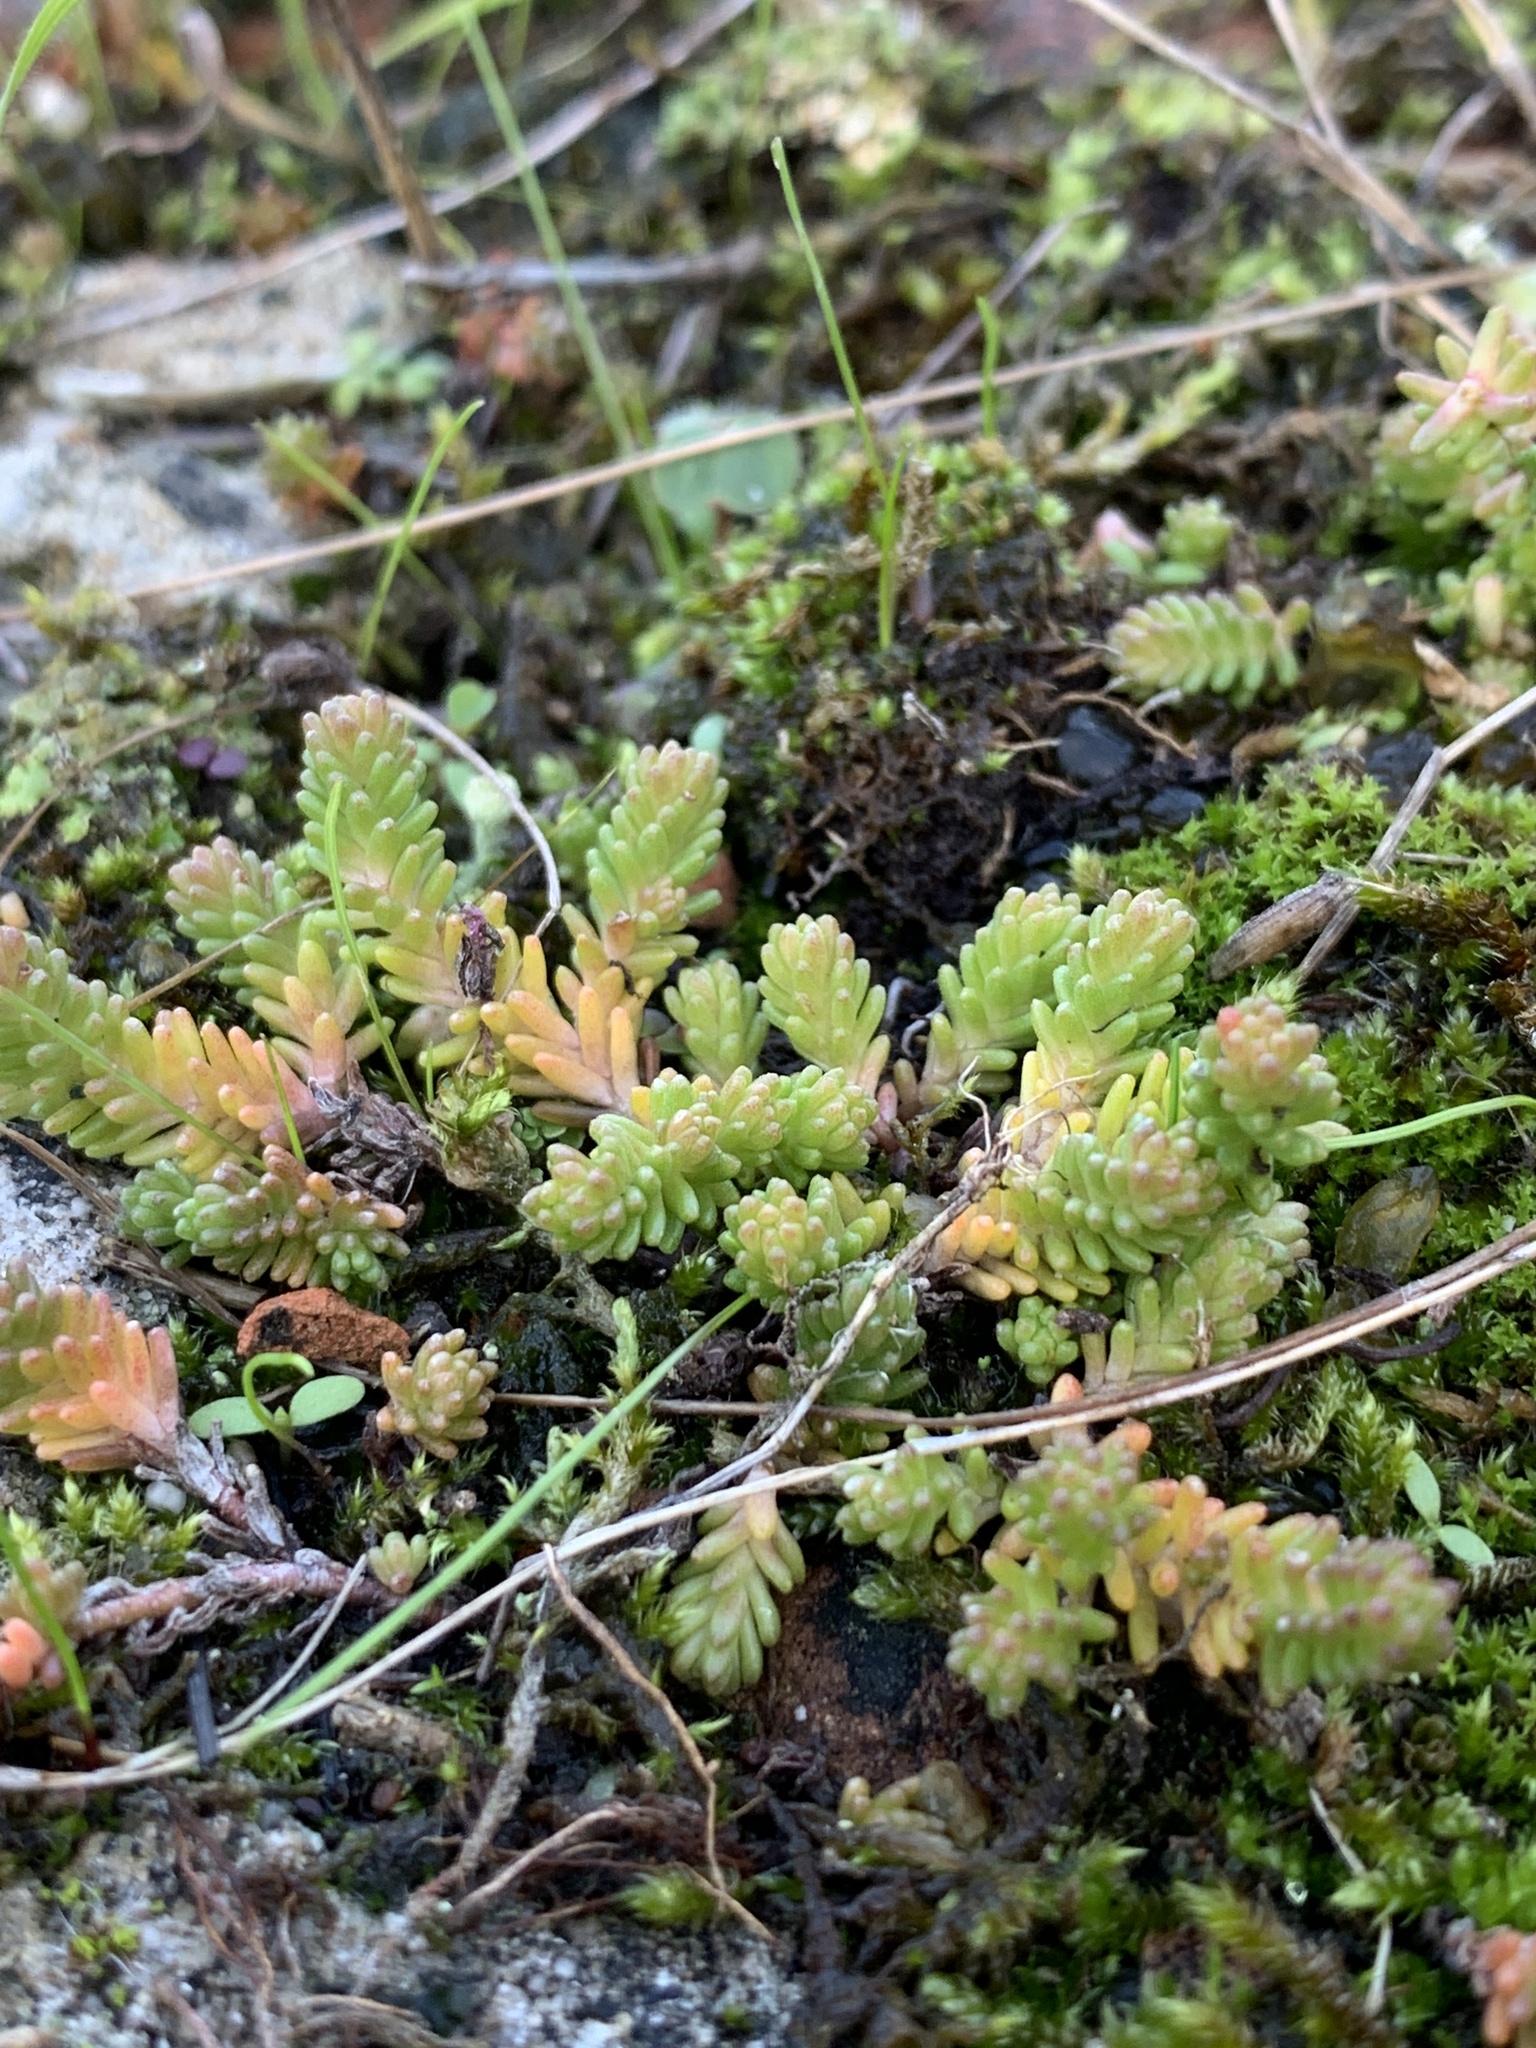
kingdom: Plantae
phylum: Tracheophyta
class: Magnoliopsida
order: Saxifragales
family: Crassulaceae
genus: Sedum
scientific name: Sedum sexangulare
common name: Tasteless stonecrop
